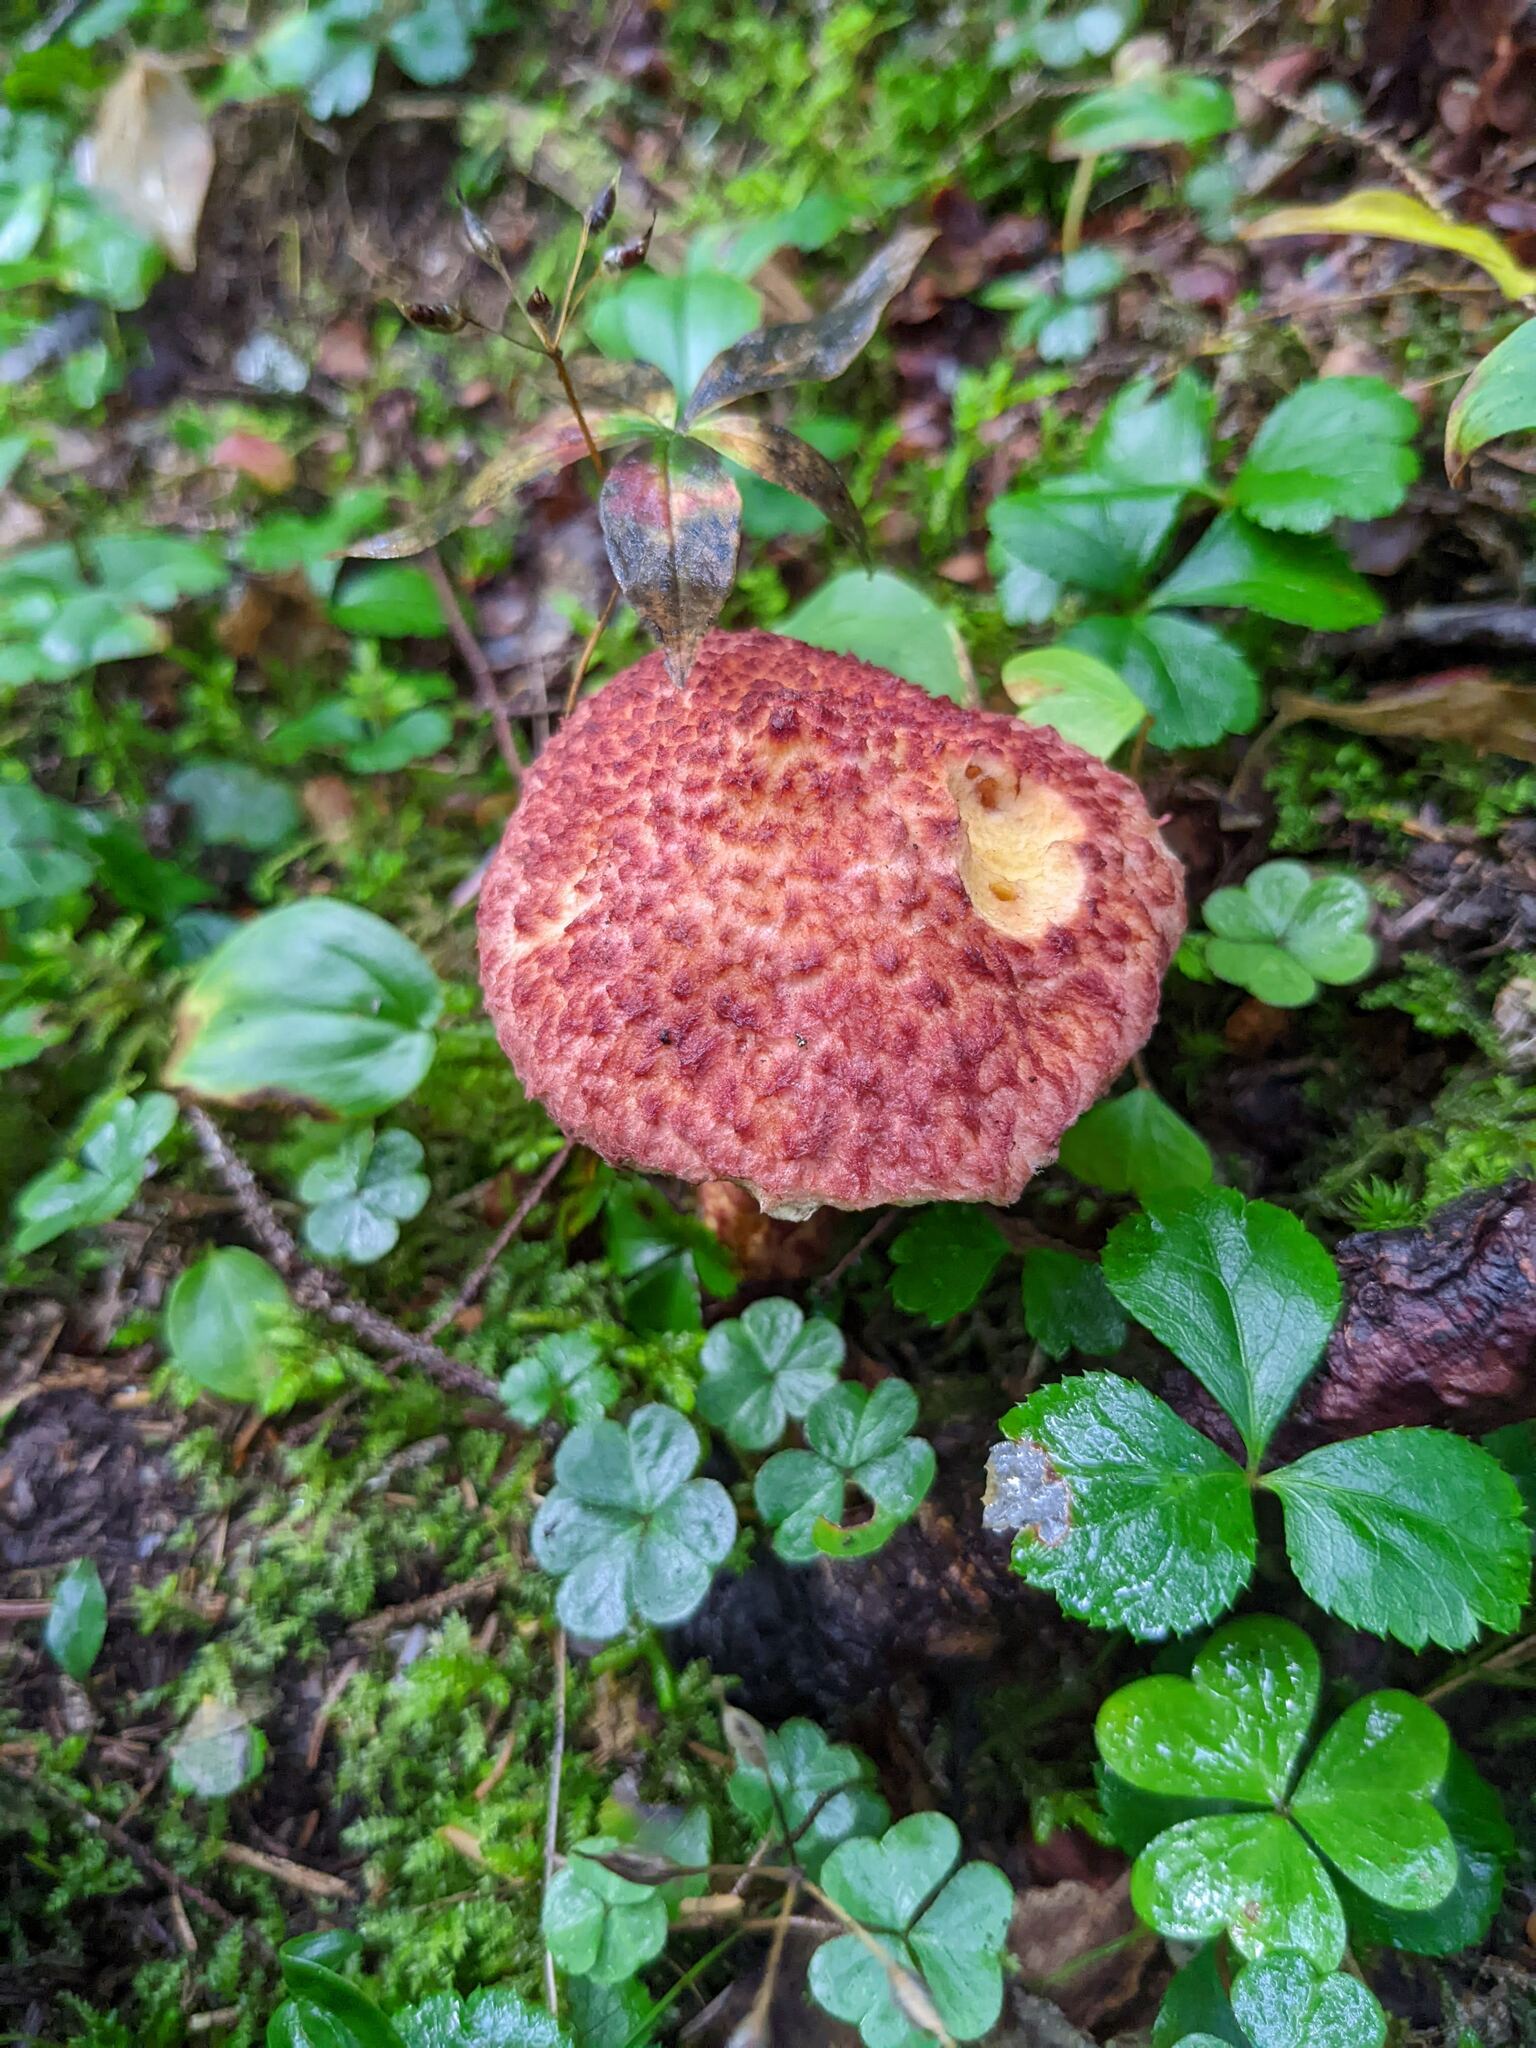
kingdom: Fungi
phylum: Basidiomycota
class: Agaricomycetes
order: Boletales
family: Suillaceae
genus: Suillus
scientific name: Suillus spraguei
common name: Painted suillus
